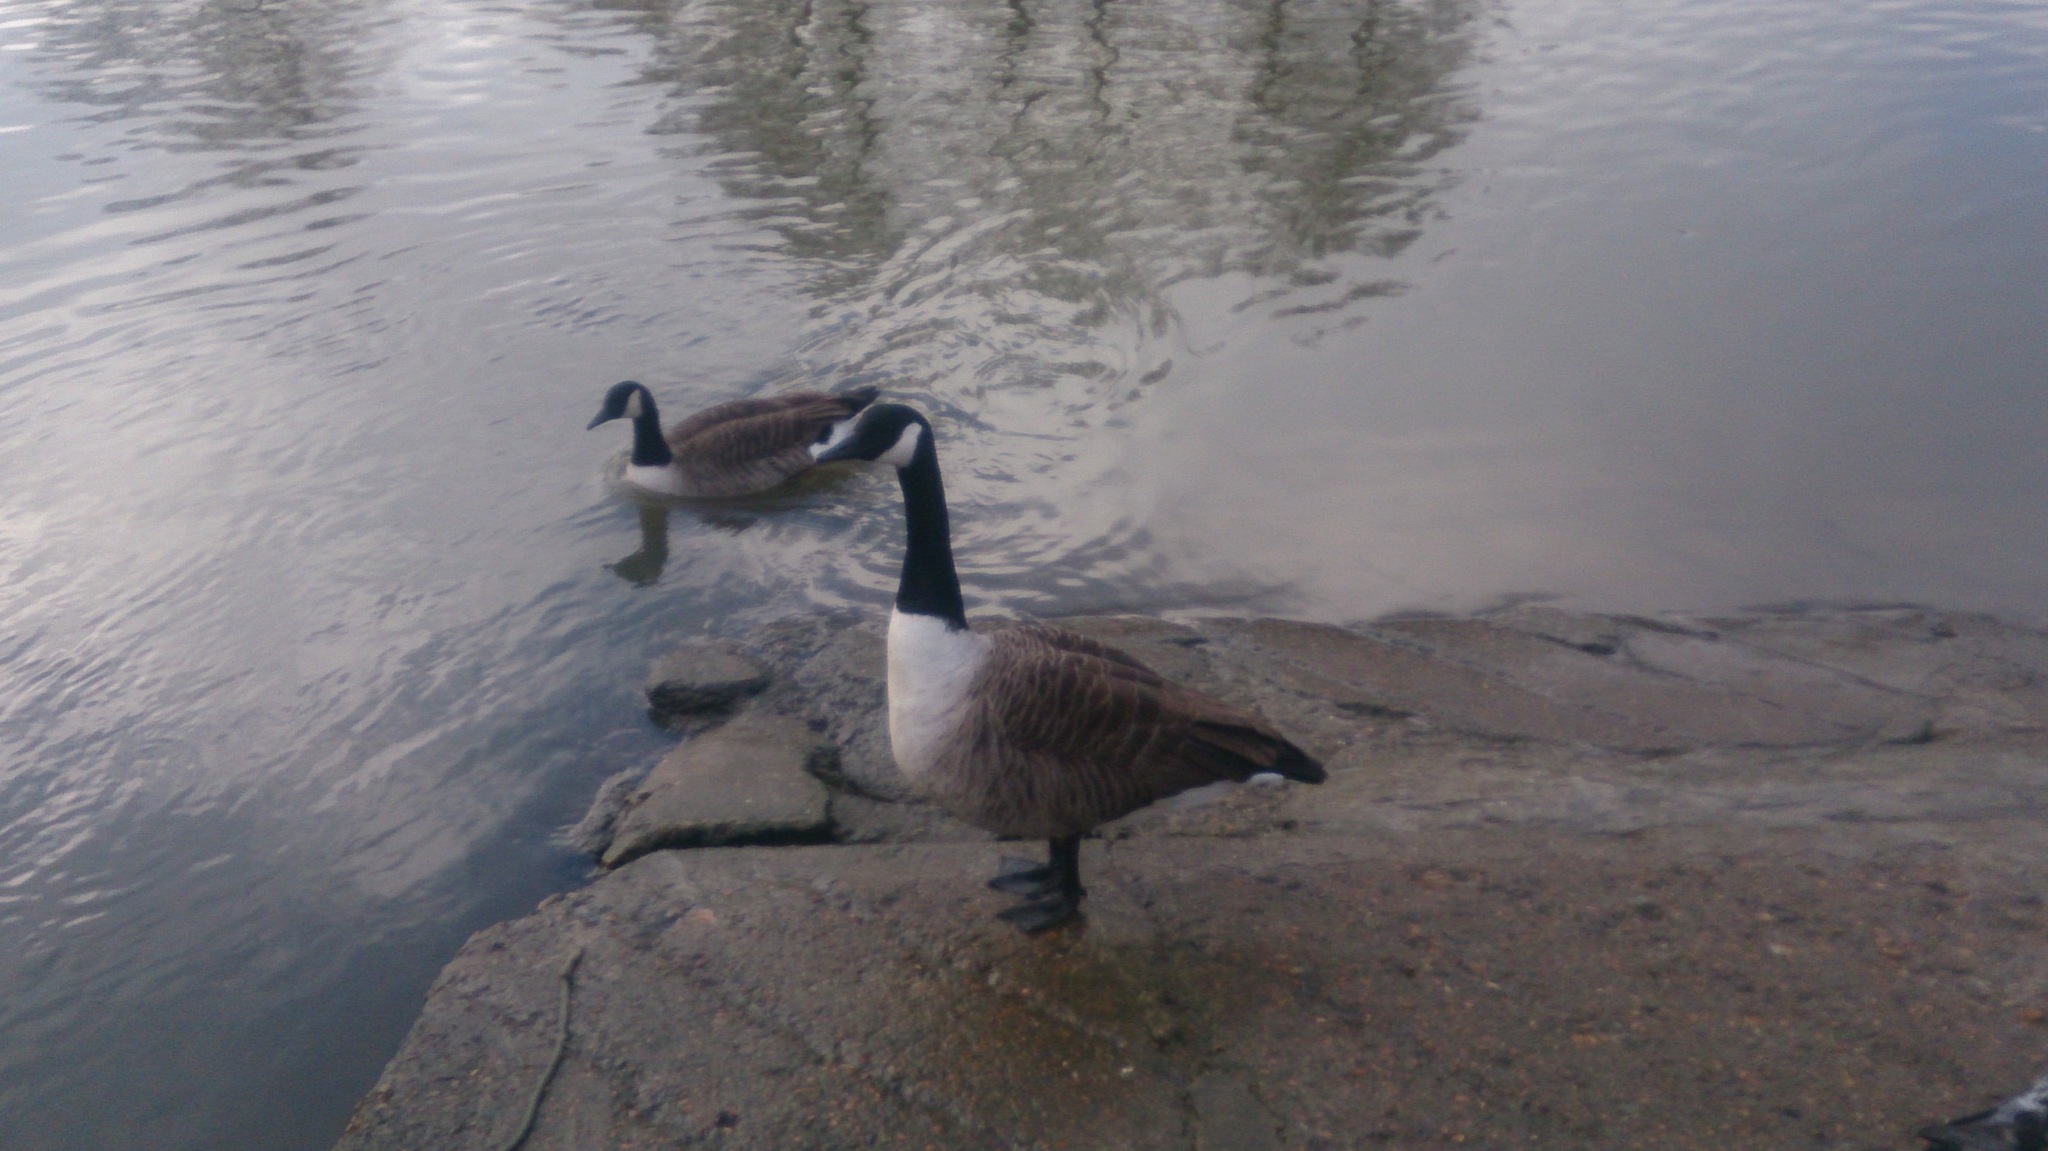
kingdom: Animalia
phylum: Chordata
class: Aves
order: Anseriformes
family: Anatidae
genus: Branta
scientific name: Branta canadensis
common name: Canada goose
